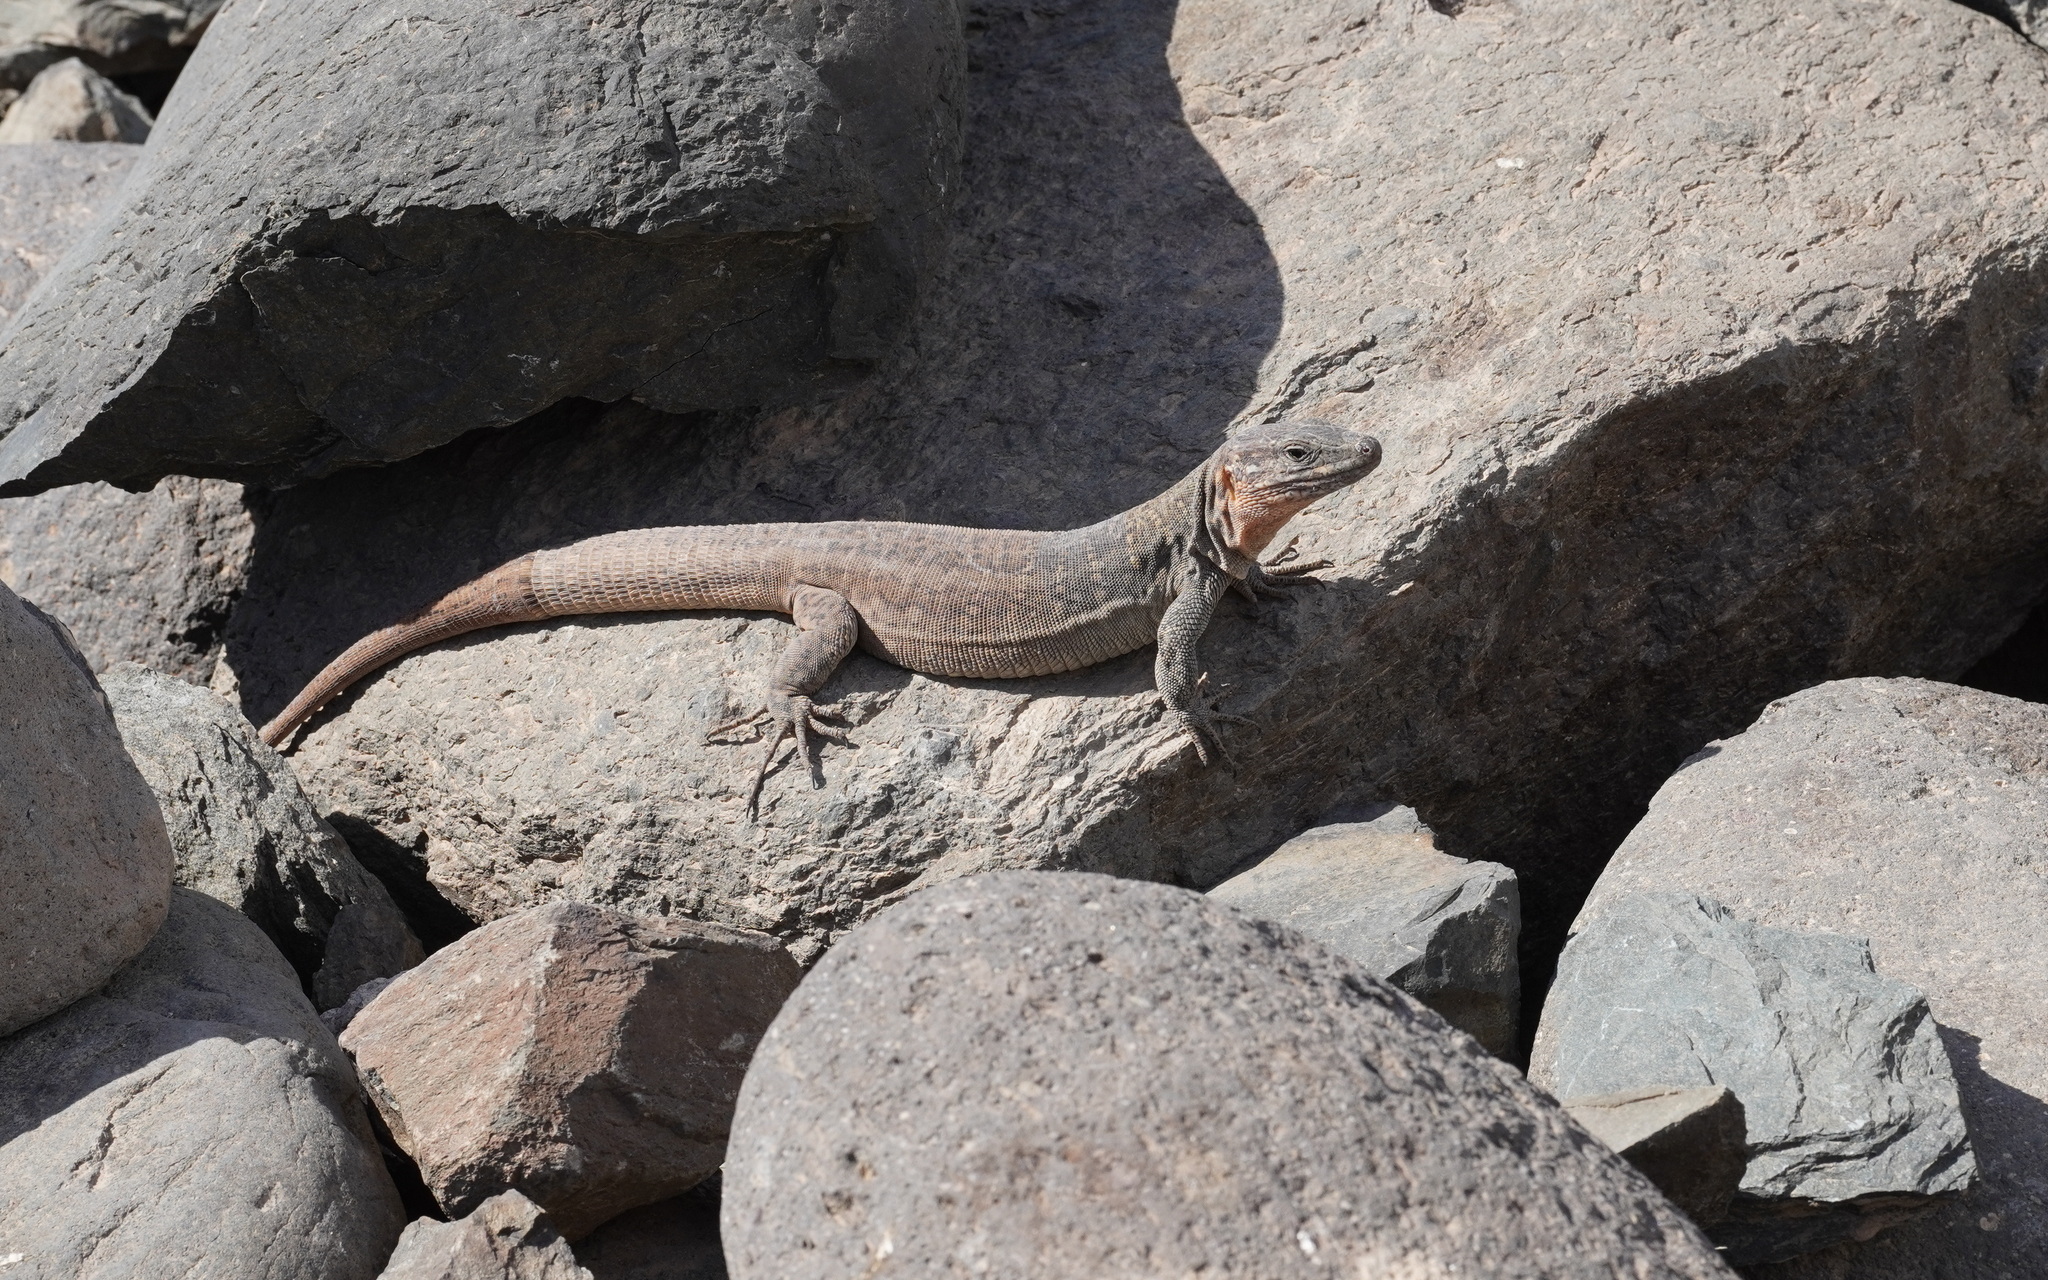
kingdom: Animalia
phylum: Chordata
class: Squamata
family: Lacertidae
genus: Gallotia
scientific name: Gallotia stehlini
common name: Gran canaria giant lizard
